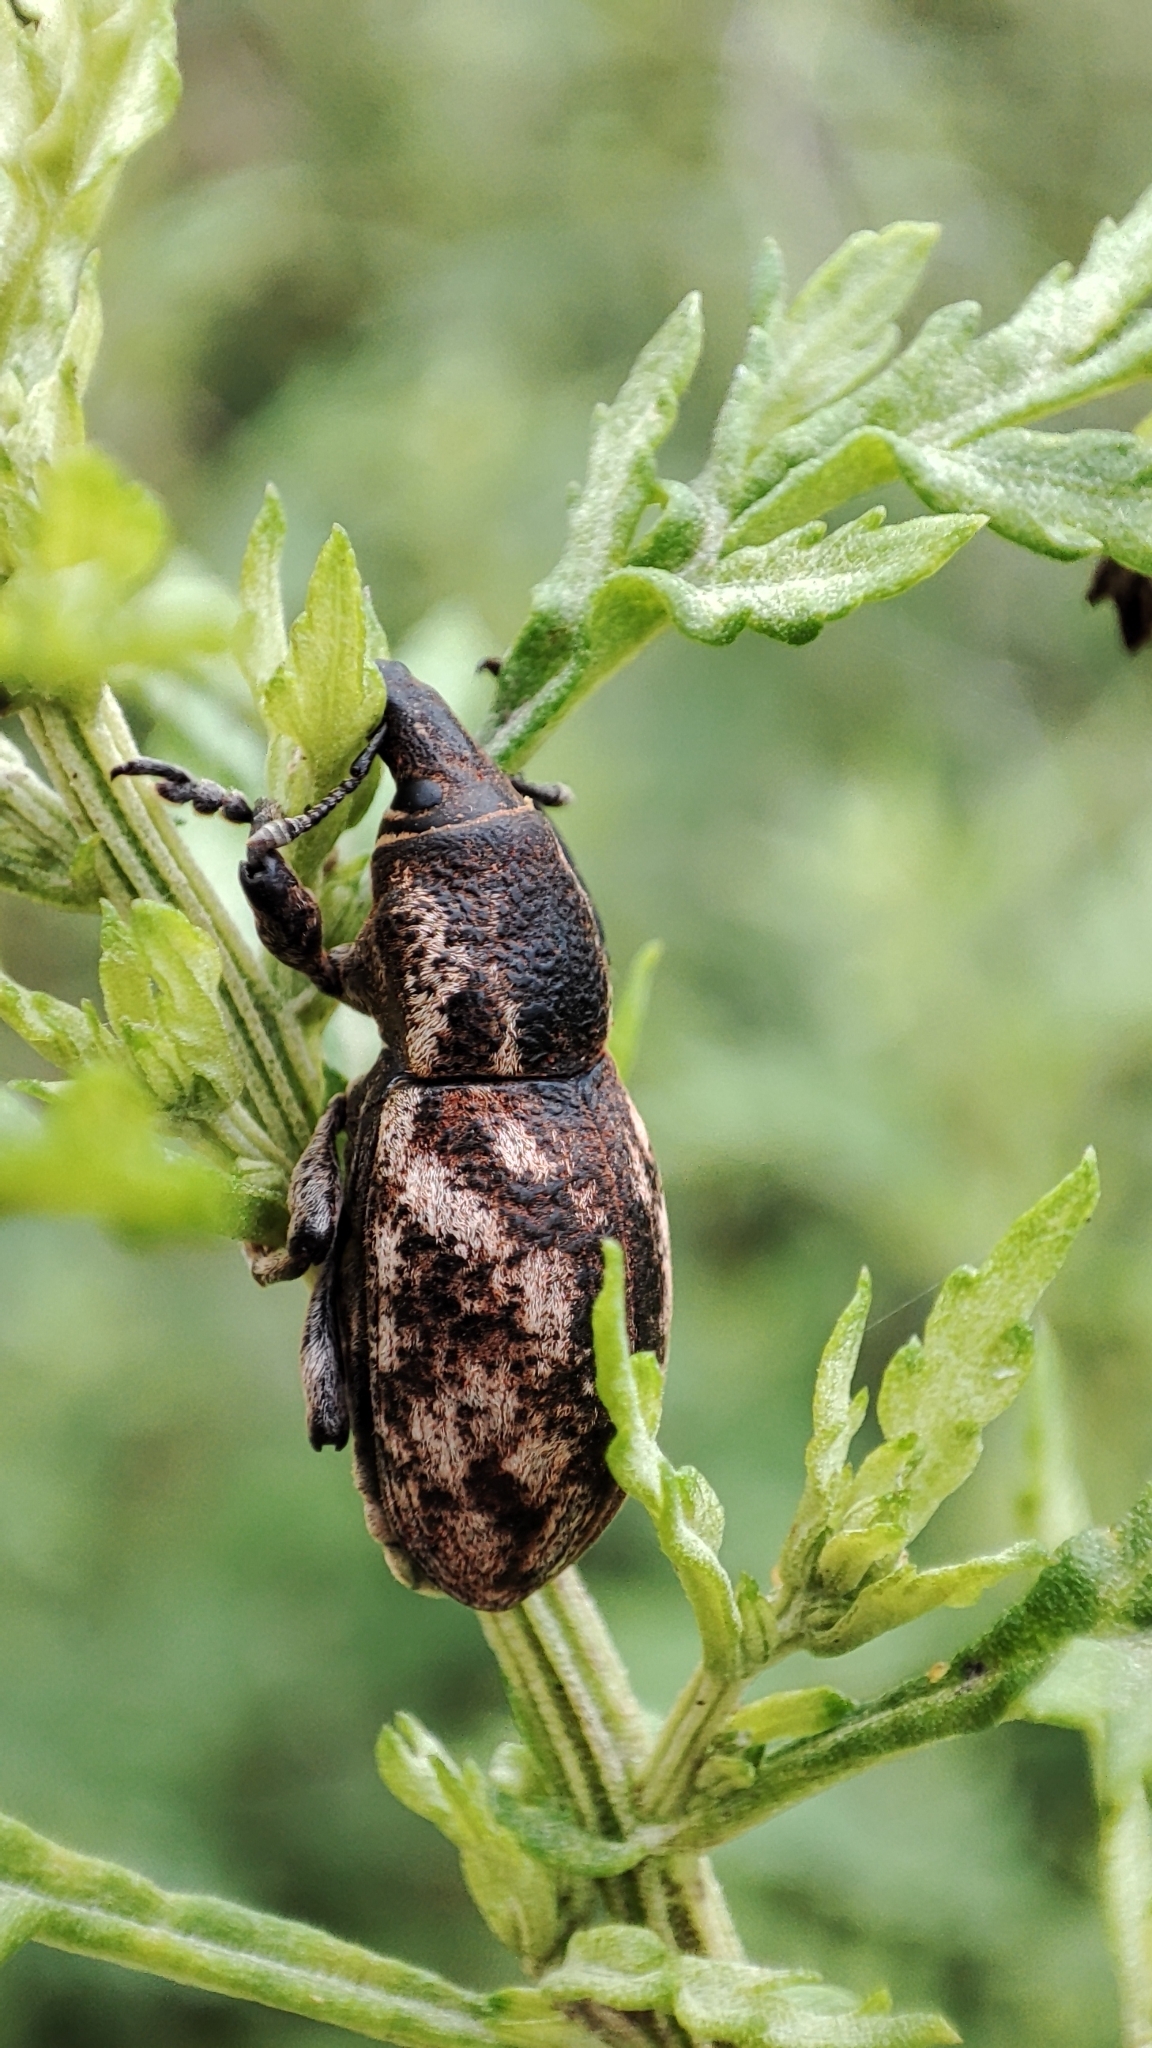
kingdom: Animalia
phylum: Arthropoda
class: Insecta
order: Coleoptera
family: Curculionidae
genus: Adosomus
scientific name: Adosomus granulosus
